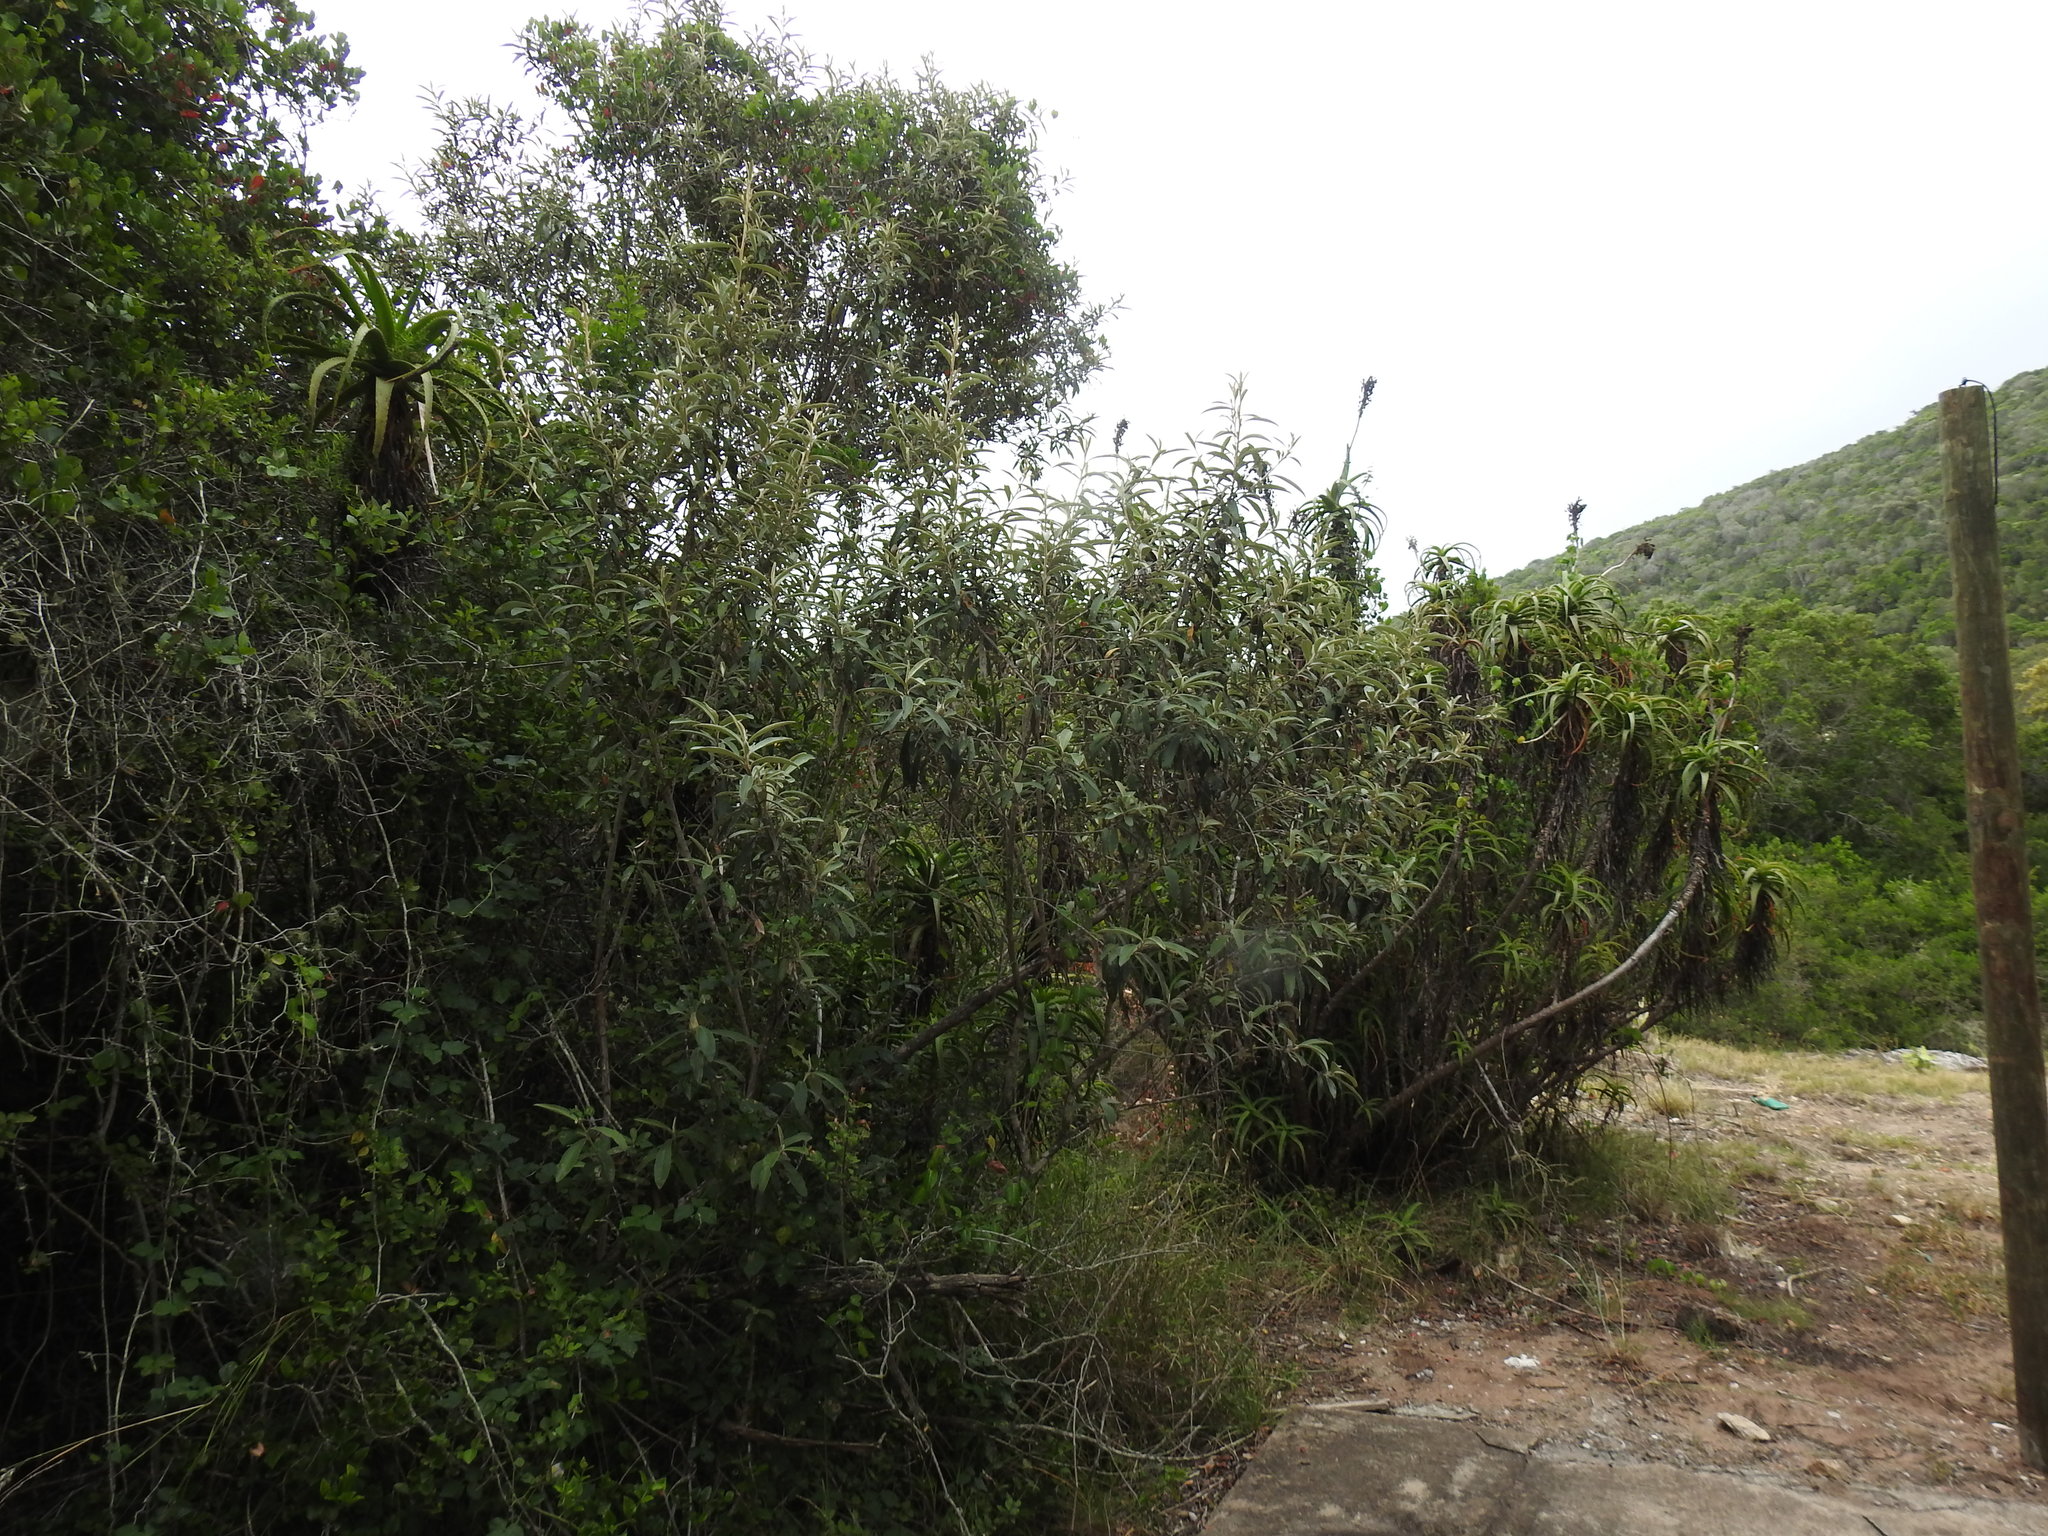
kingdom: Plantae
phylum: Tracheophyta
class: Magnoliopsida
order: Lamiales
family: Scrophulariaceae
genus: Buddleja
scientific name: Buddleja salviifolia
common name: Sagewood
